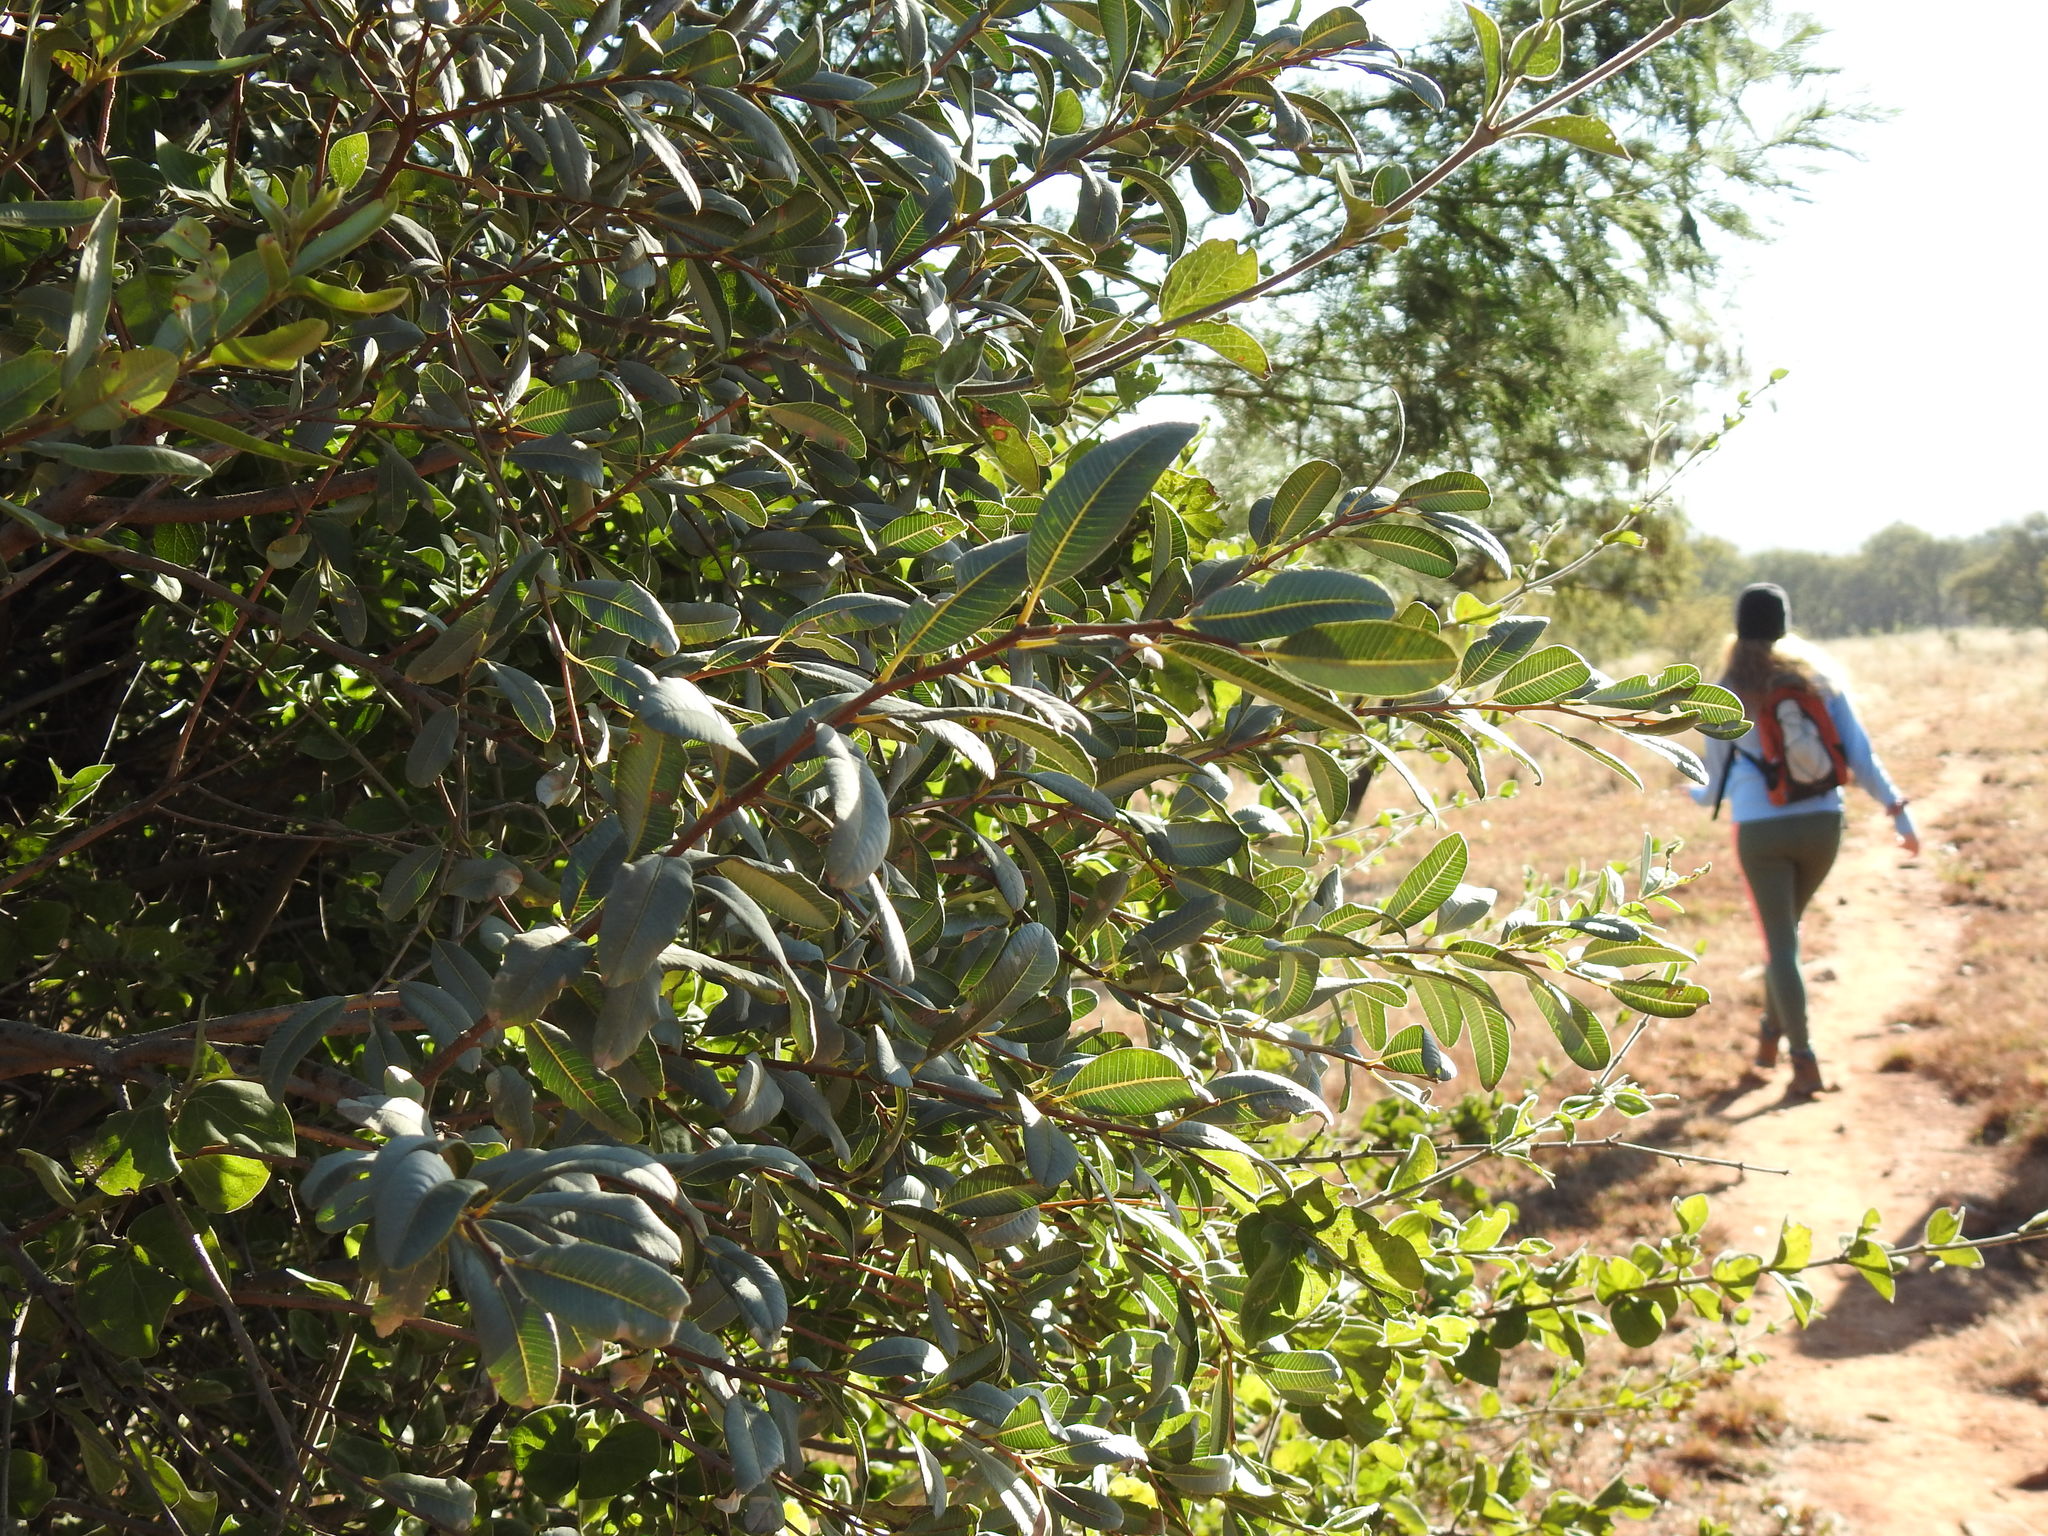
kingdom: Plantae
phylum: Tracheophyta
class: Magnoliopsida
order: Sapindales
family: Anacardiaceae
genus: Ozoroa
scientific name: Ozoroa paniculosa
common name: Bushveld ozoroa
